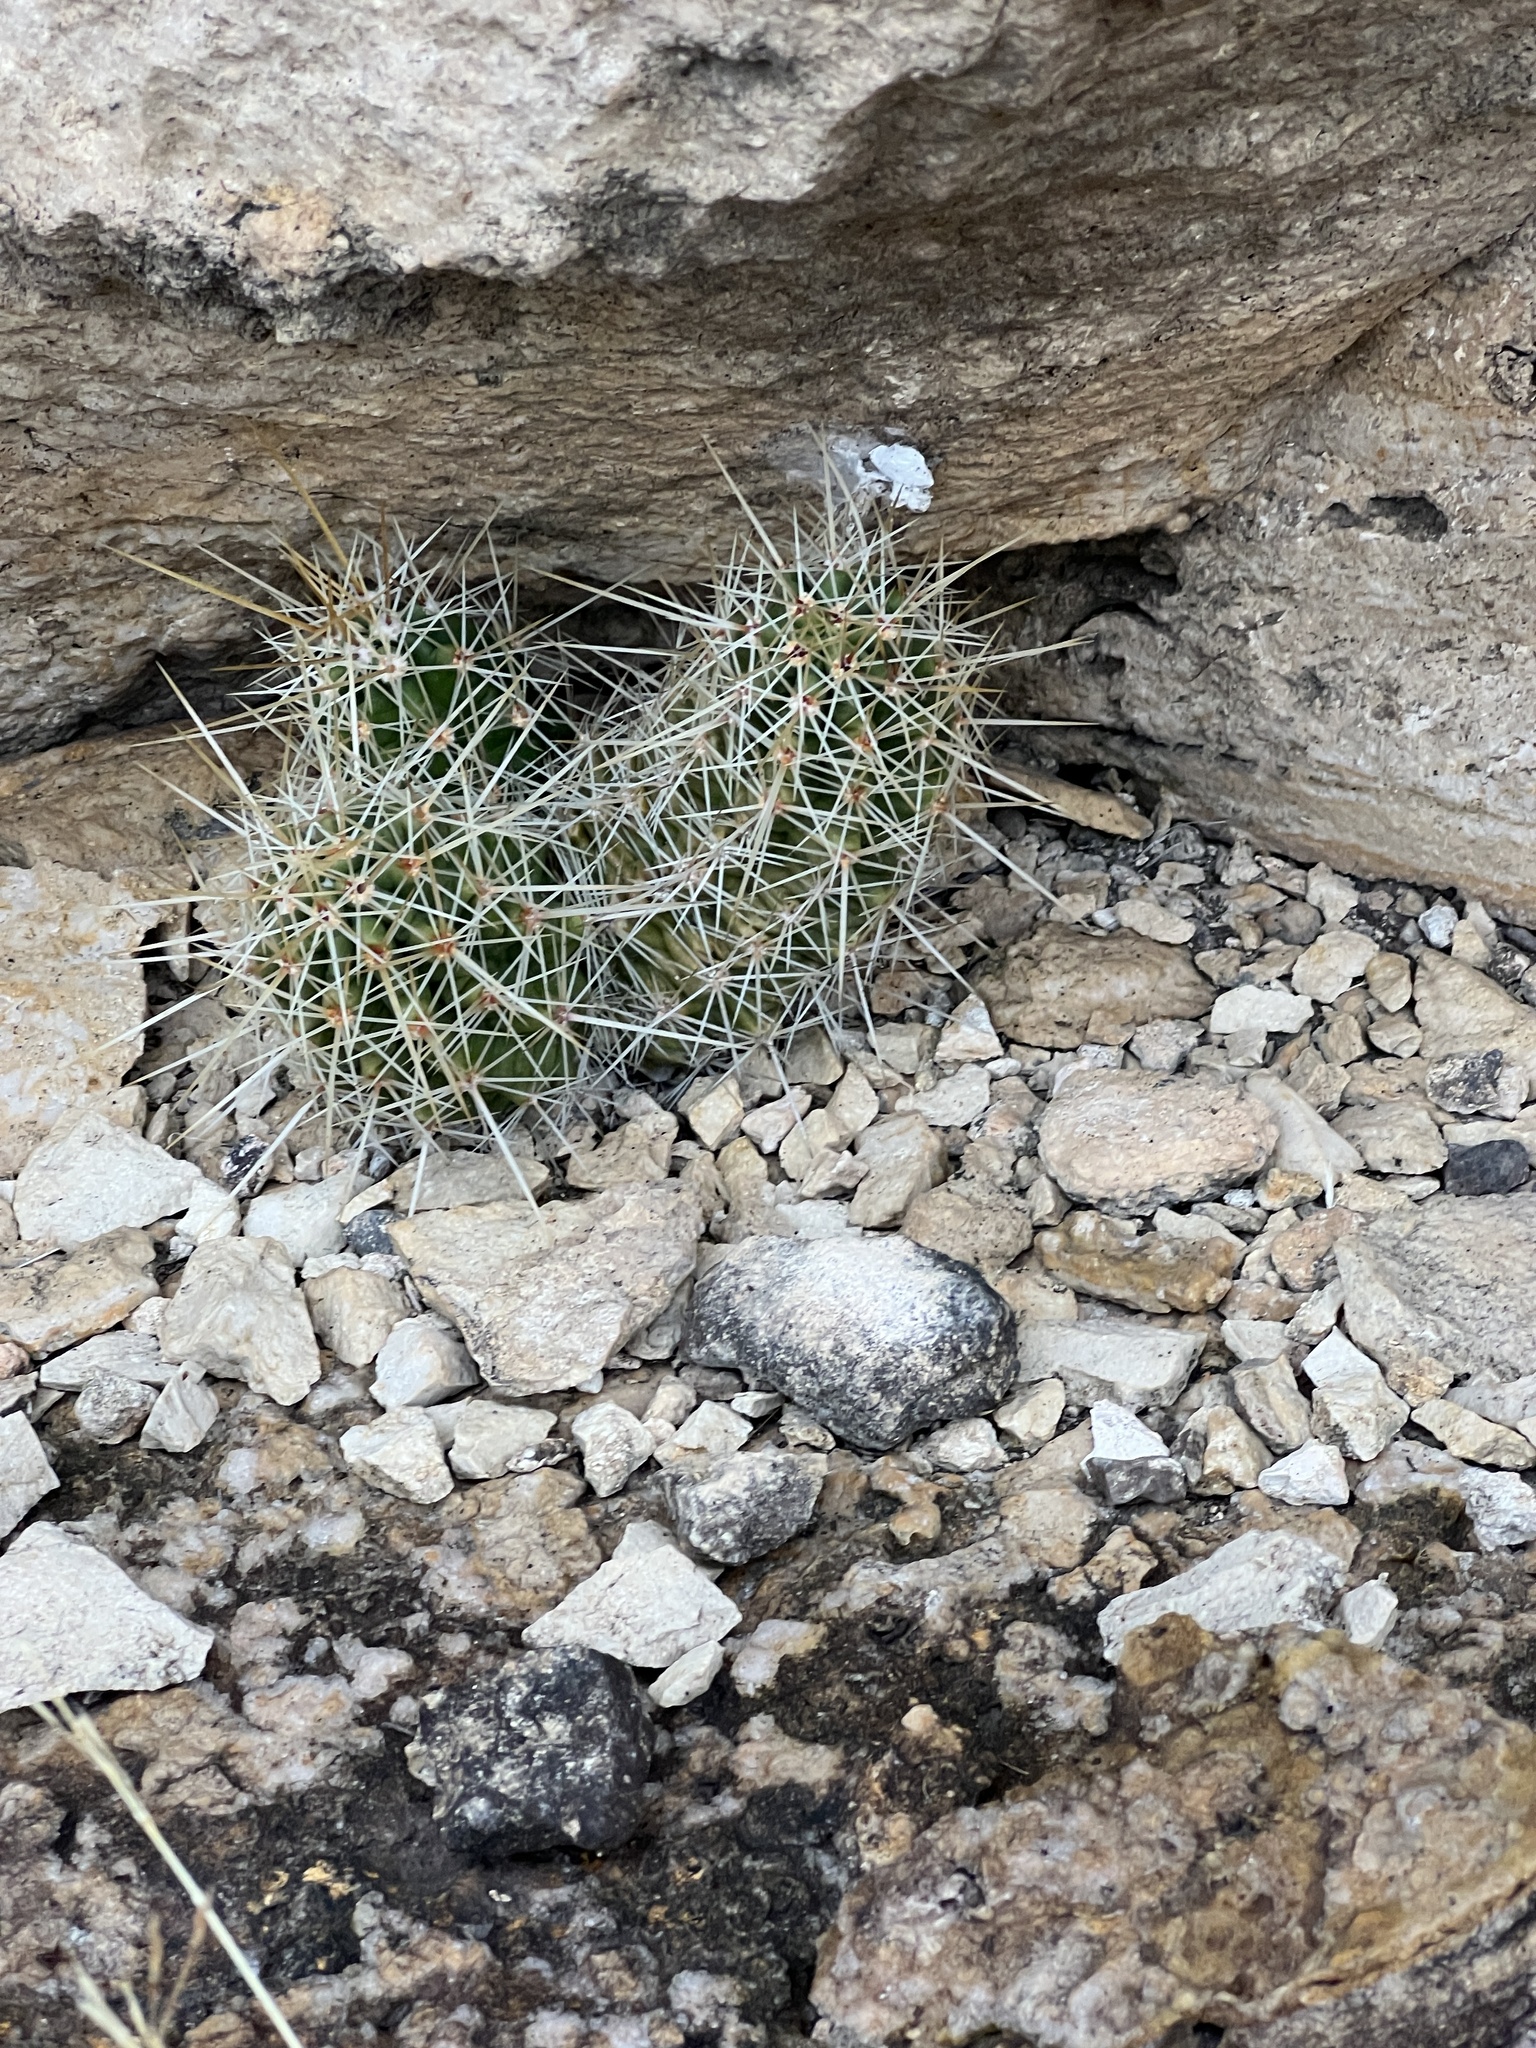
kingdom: Plantae
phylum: Tracheophyta
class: Magnoliopsida
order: Caryophyllales
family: Cactaceae
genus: Echinocereus
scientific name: Echinocereus enneacanthus
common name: Pitaya
